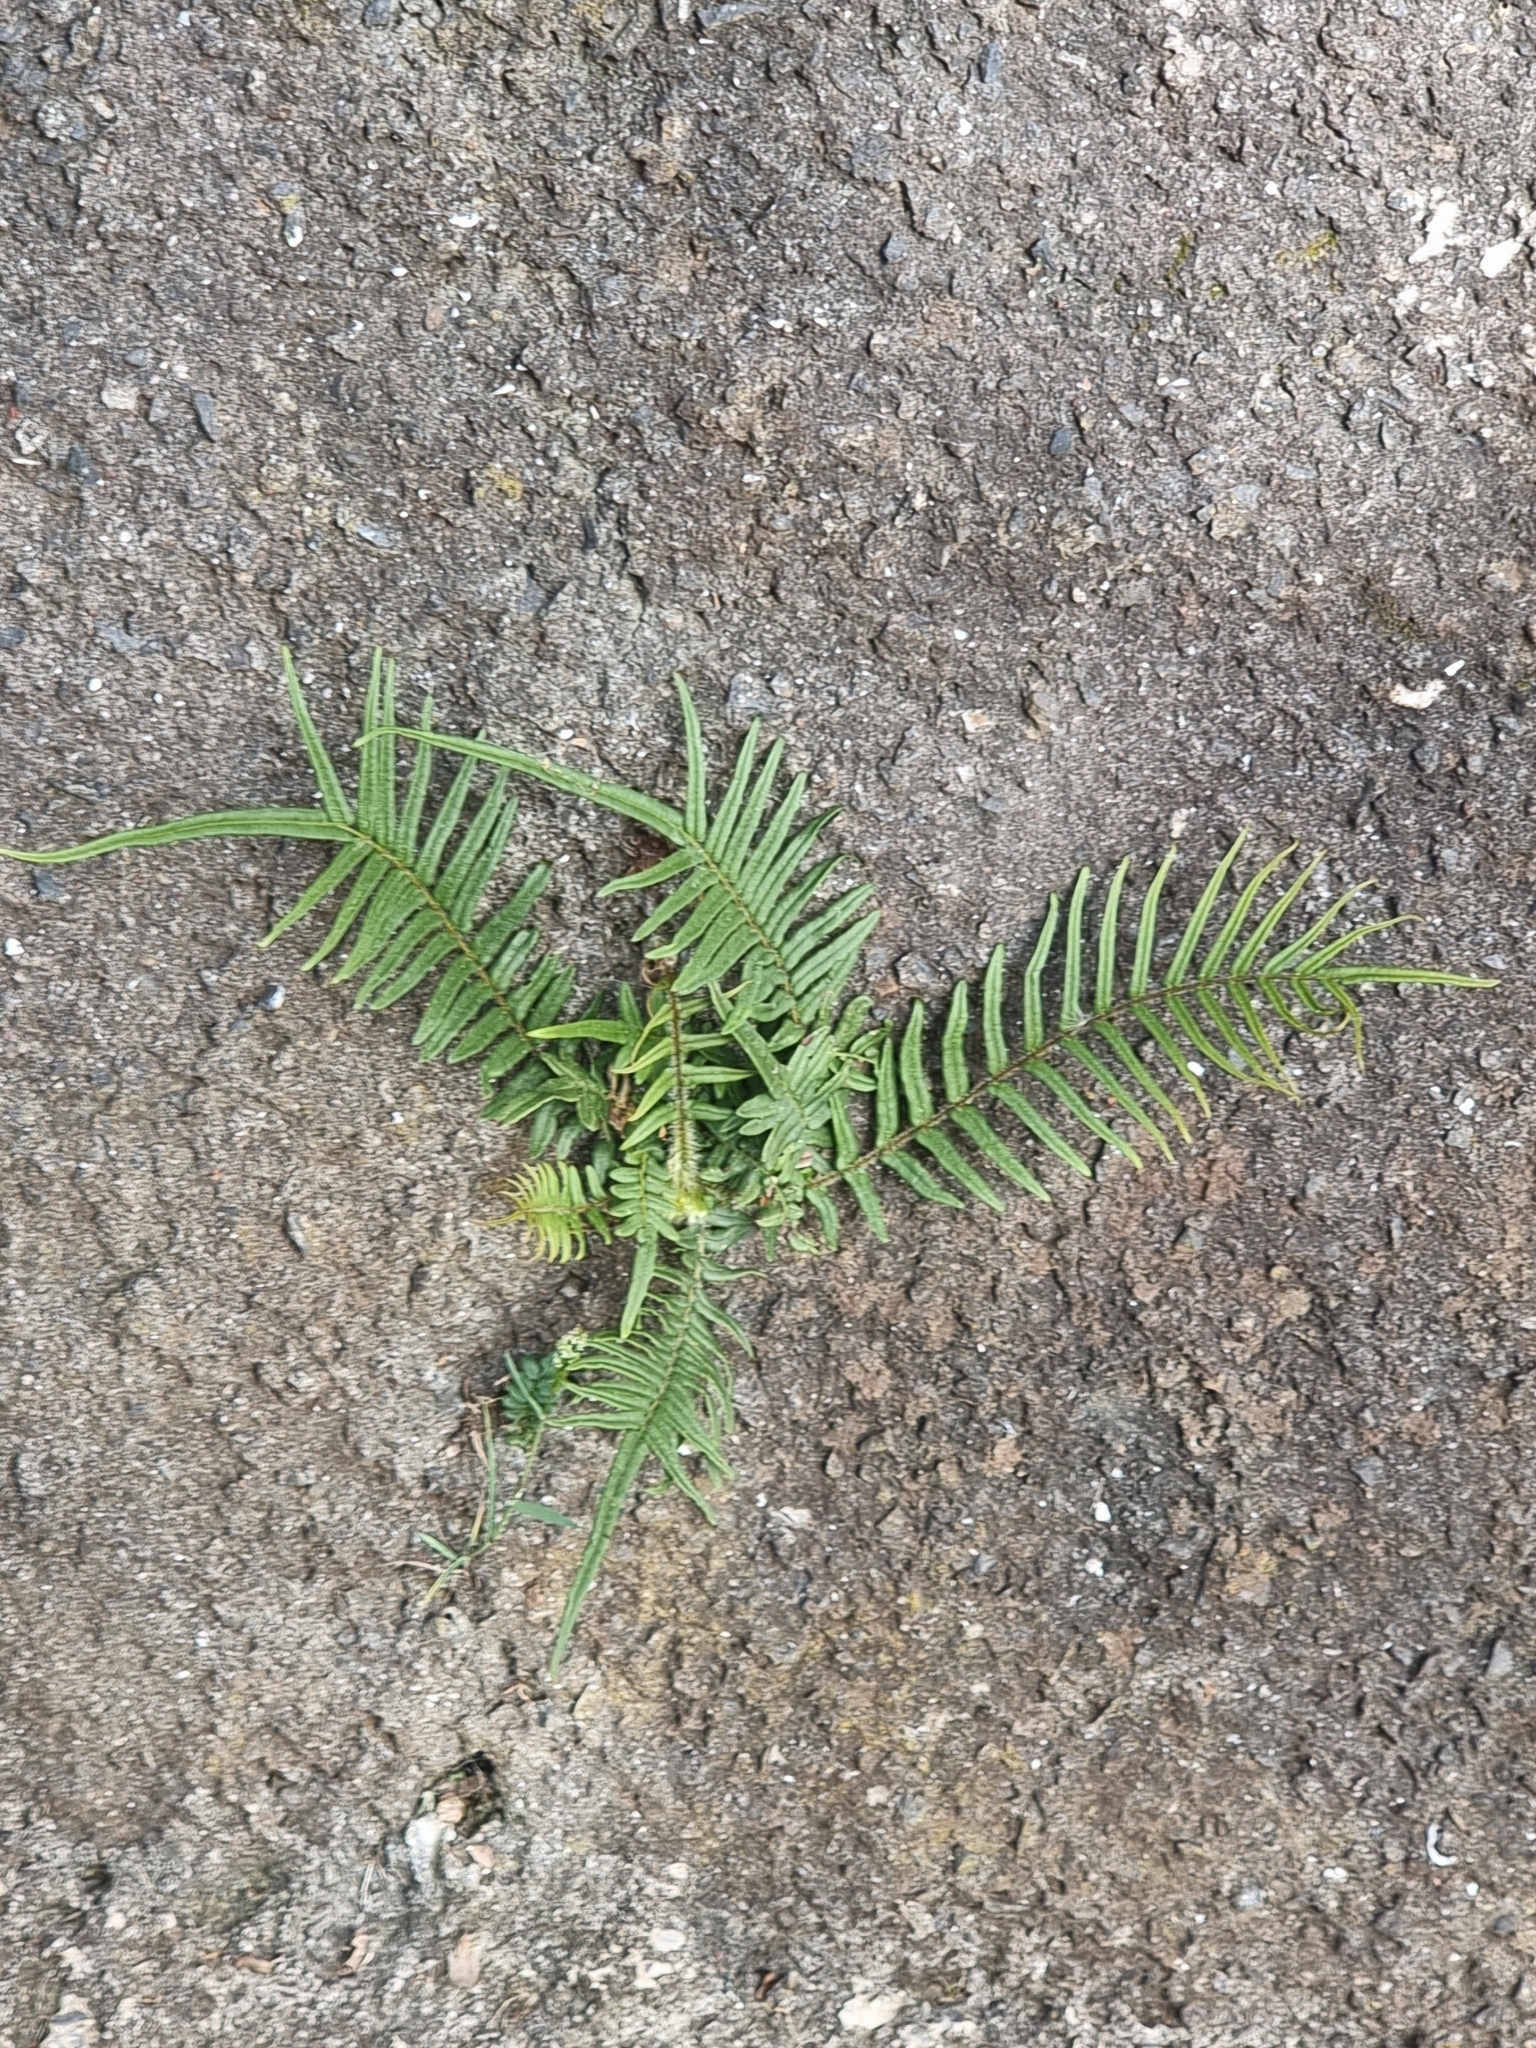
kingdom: Plantae
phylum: Tracheophyta
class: Polypodiopsida
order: Polypodiales
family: Pteridaceae
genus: Pteris
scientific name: Pteris vittata
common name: Ladder brake
